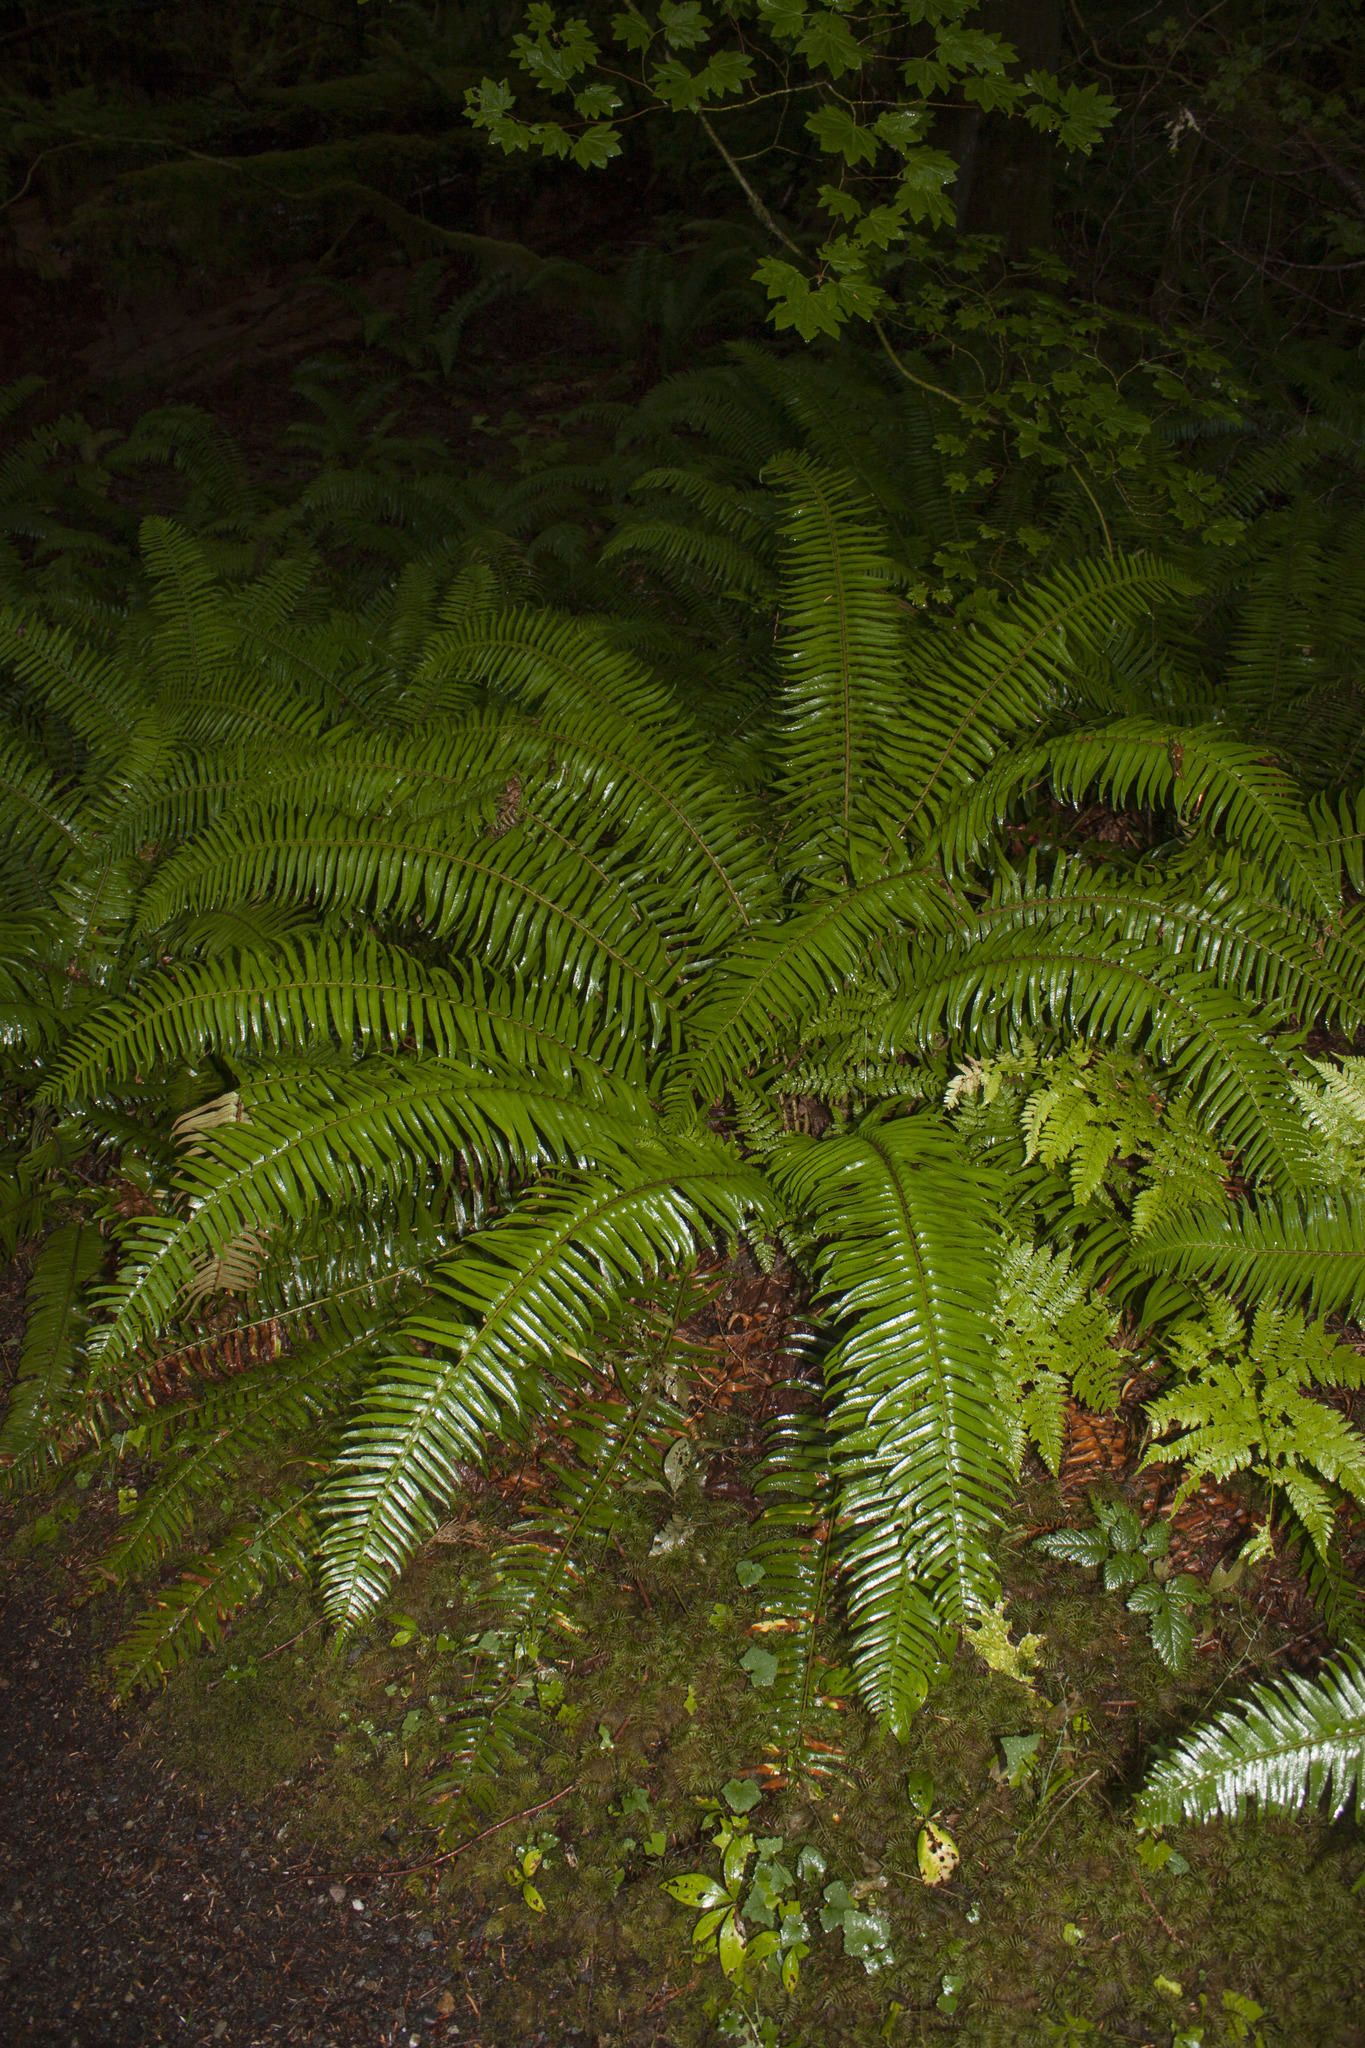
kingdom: Plantae
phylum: Tracheophyta
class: Polypodiopsida
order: Polypodiales
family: Dryopteridaceae
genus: Polystichum
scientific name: Polystichum munitum
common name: Western sword-fern
